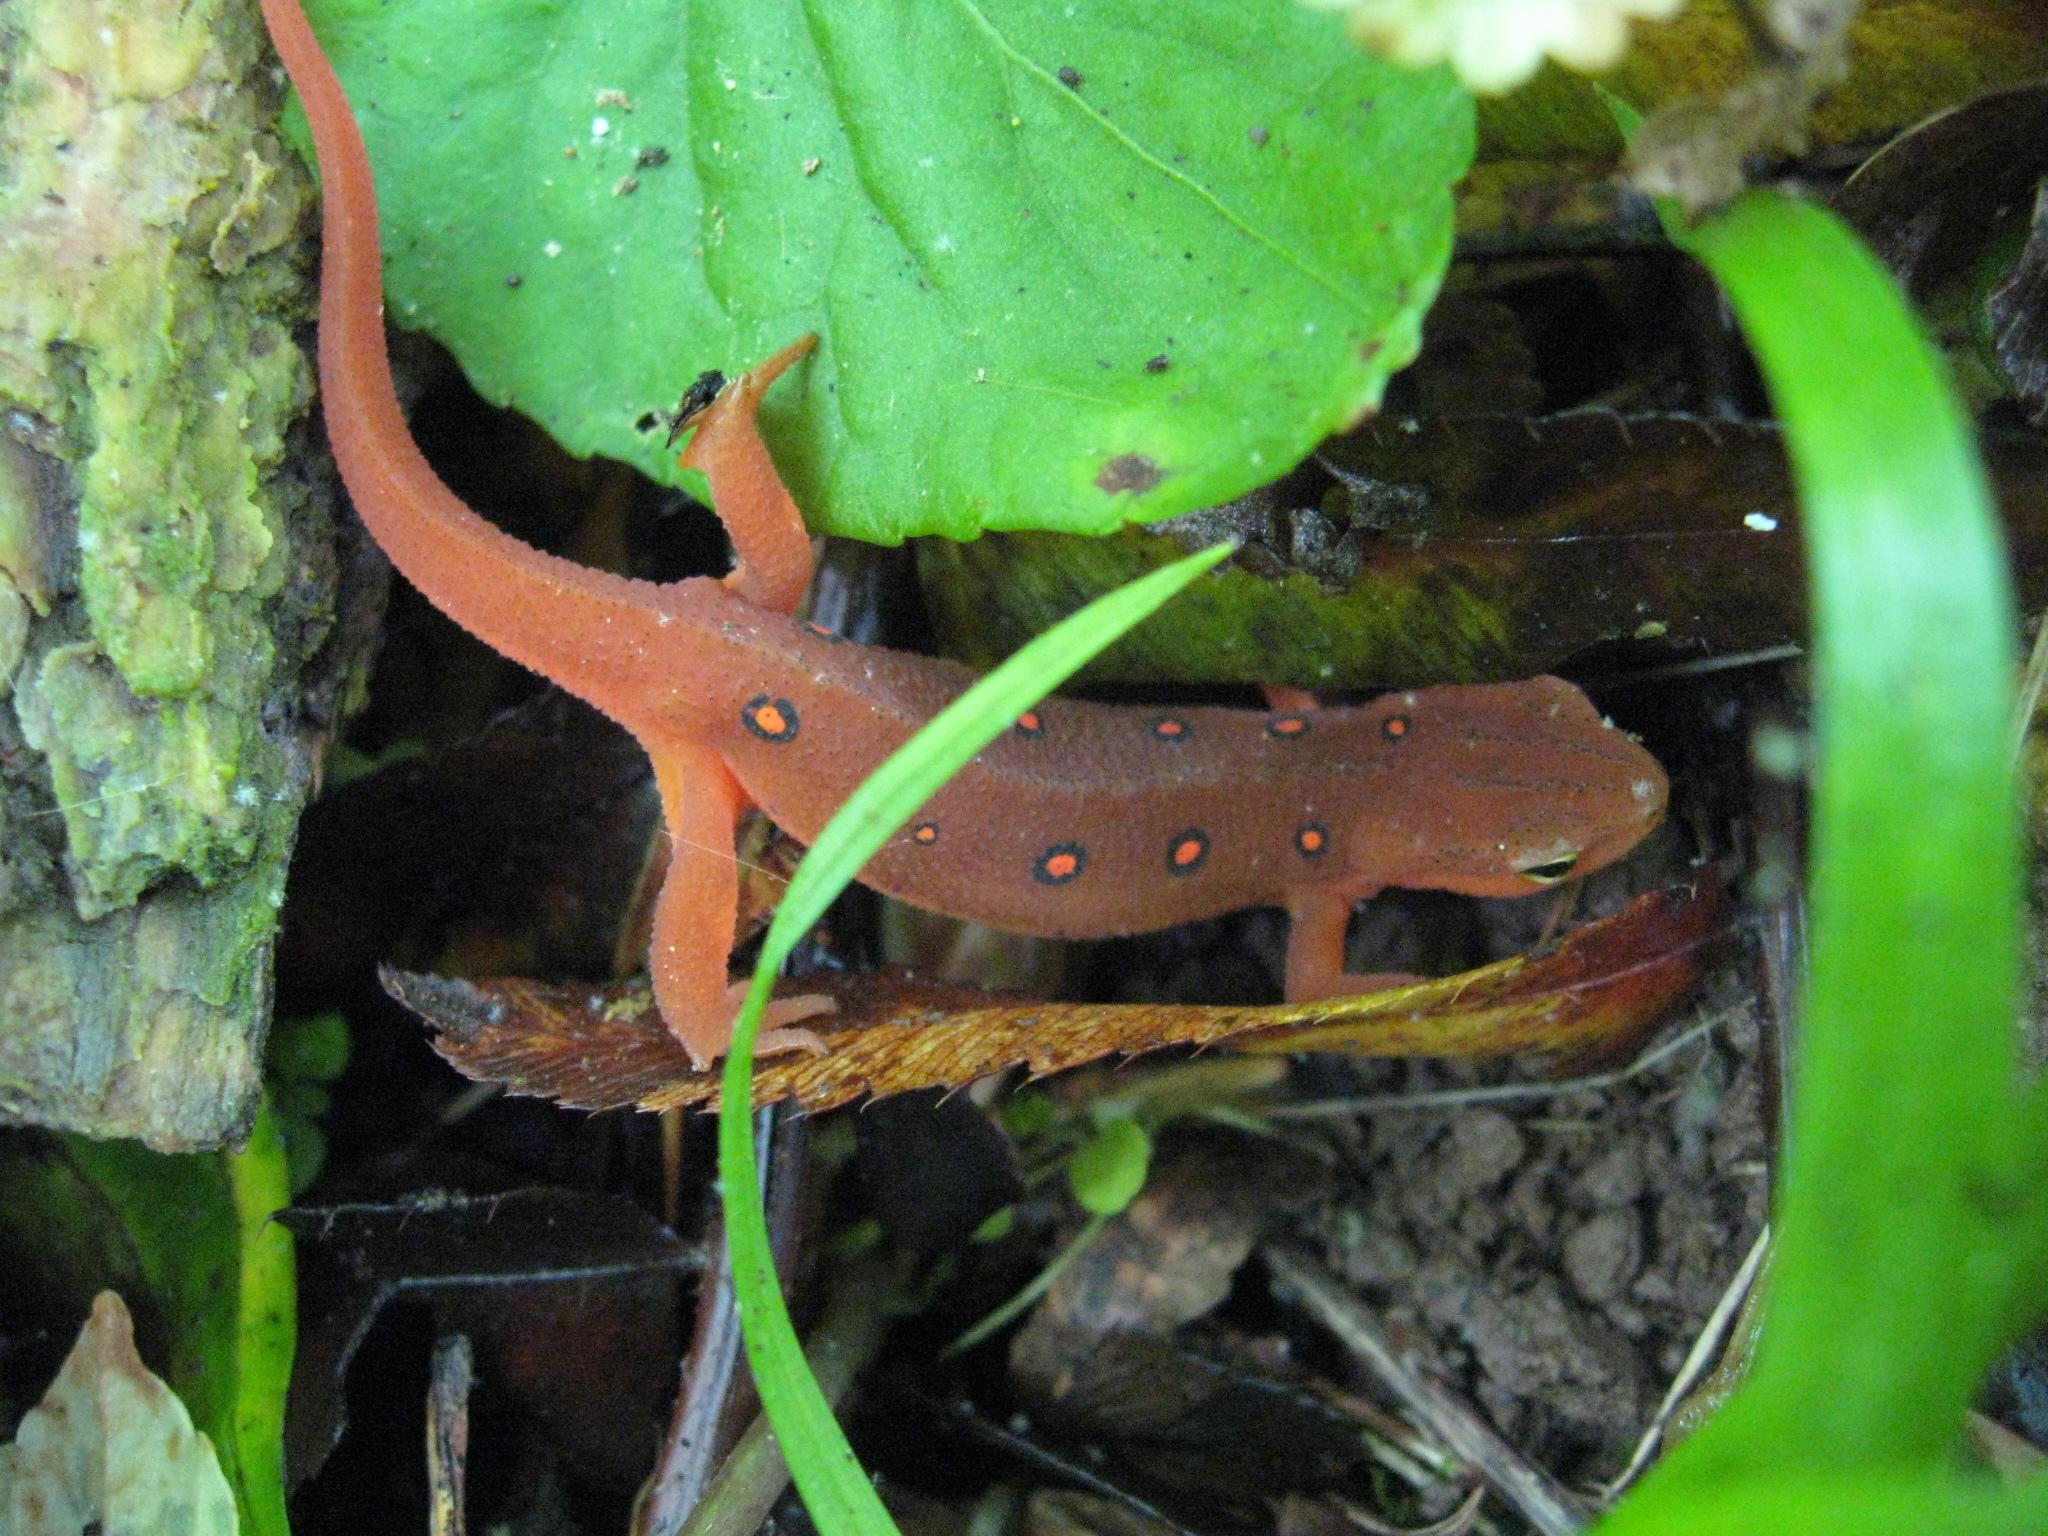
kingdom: Animalia
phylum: Chordata
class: Amphibia
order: Caudata
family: Salamandridae
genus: Notophthalmus
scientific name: Notophthalmus viridescens
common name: Eastern newt
